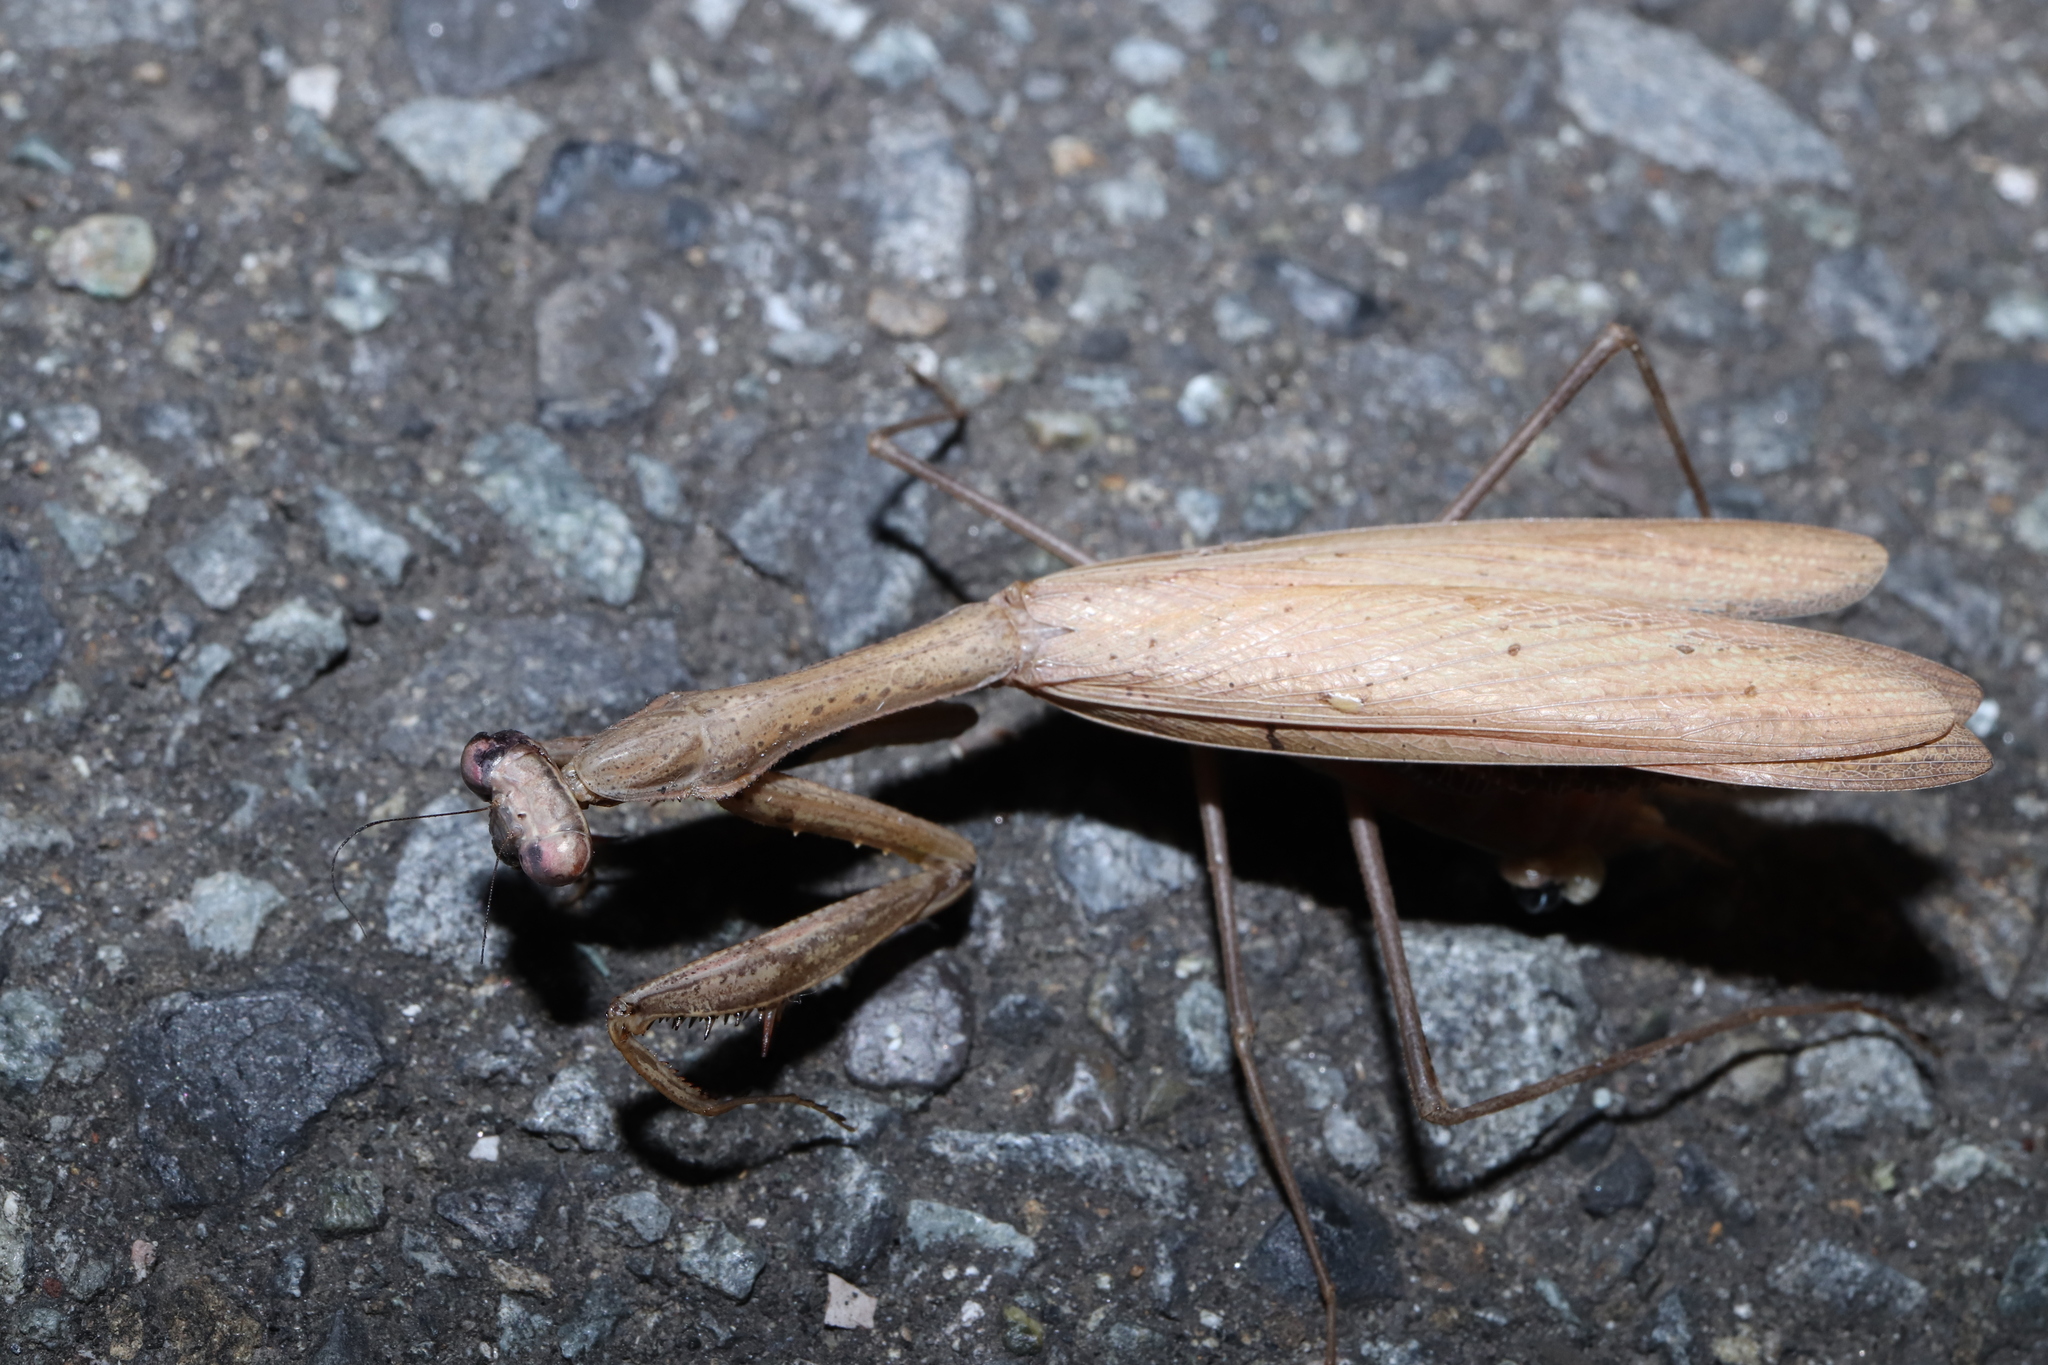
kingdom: Animalia
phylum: Arthropoda
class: Insecta
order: Mantodea
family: Mantidae
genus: Statilia
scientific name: Statilia maculata
